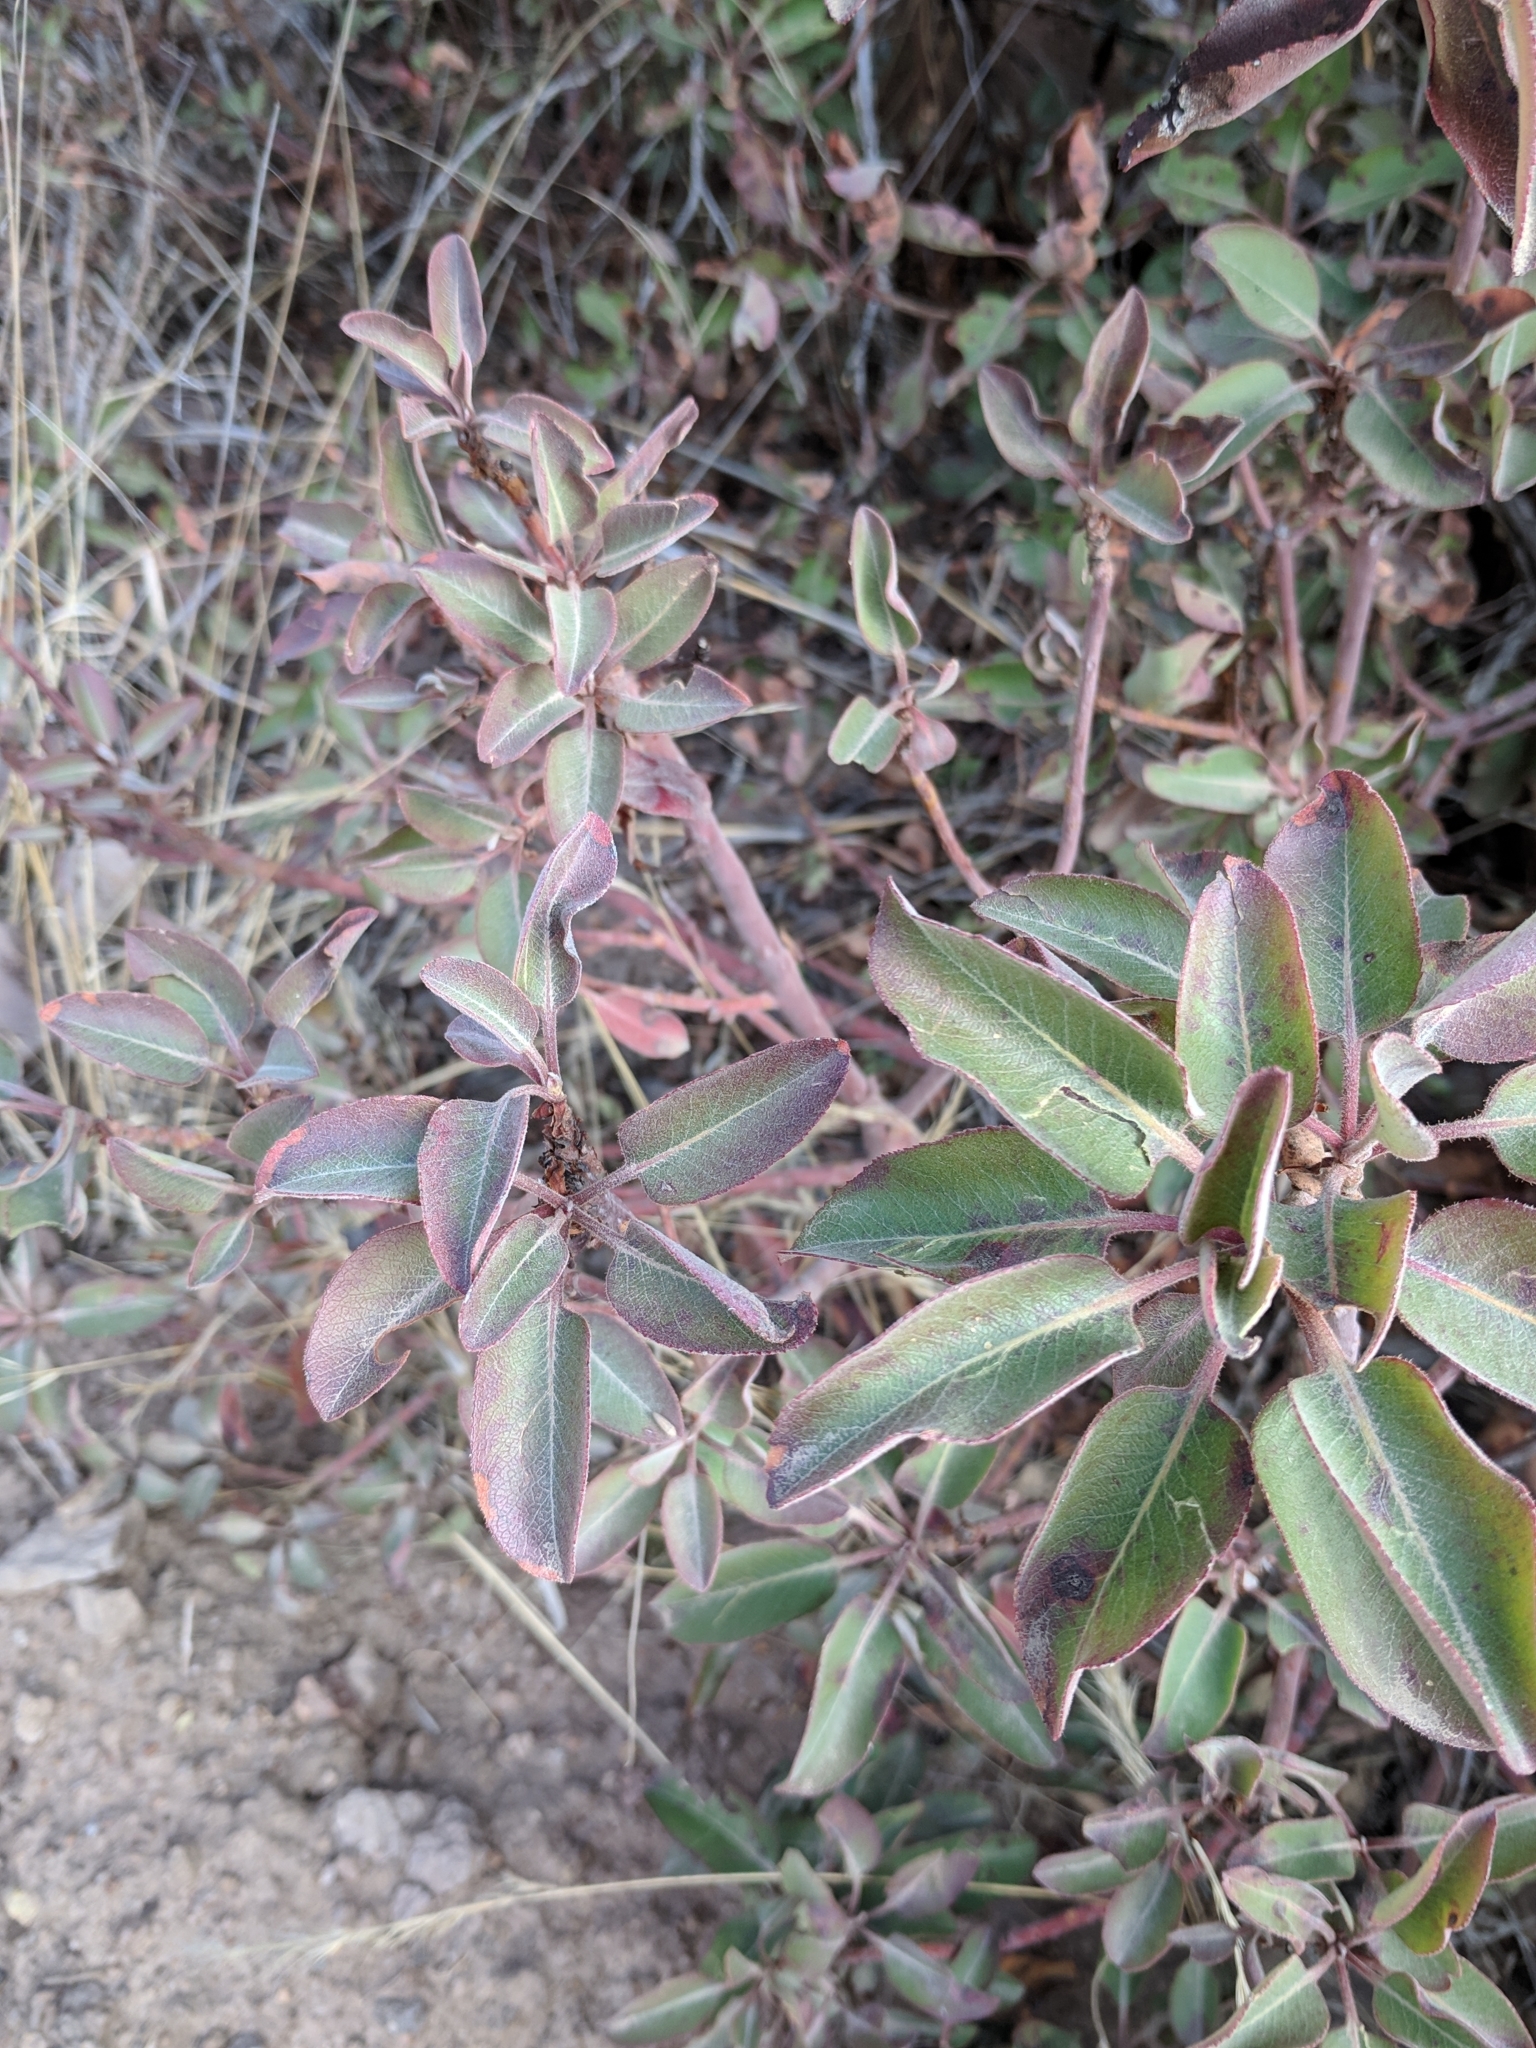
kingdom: Plantae
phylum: Tracheophyta
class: Magnoliopsida
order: Ericales
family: Ericaceae
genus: Arbutus
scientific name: Arbutus xalapensis
